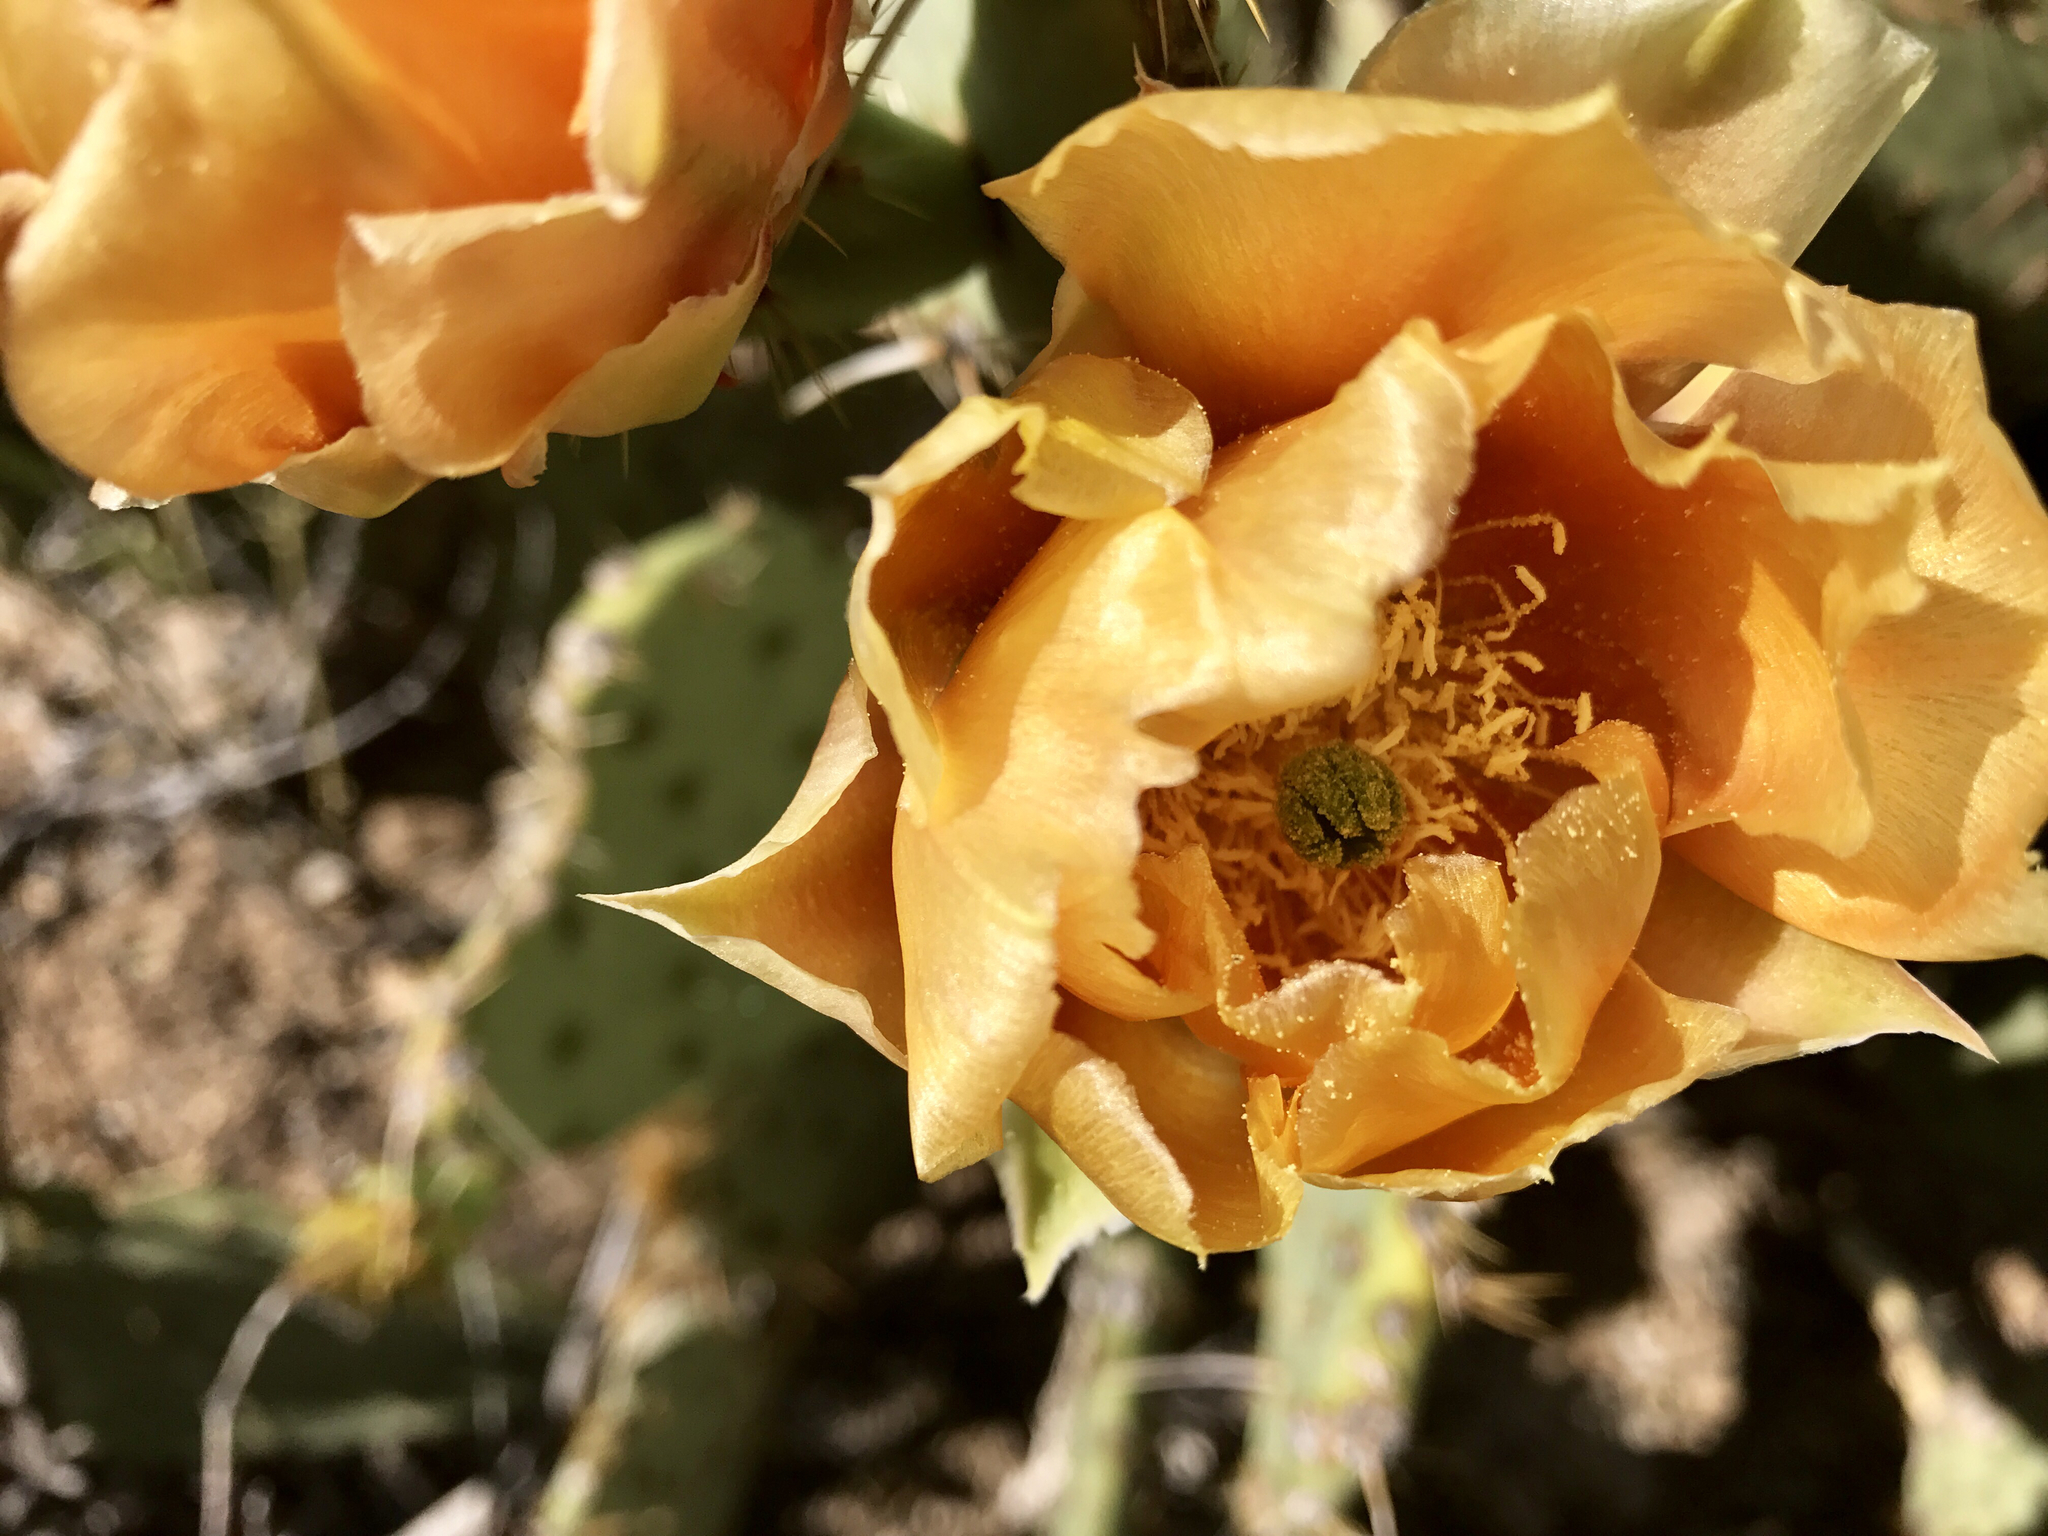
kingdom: Plantae
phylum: Tracheophyta
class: Magnoliopsida
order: Caryophyllales
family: Cactaceae
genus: Opuntia
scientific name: Opuntia engelmannii
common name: Cactus-apple
